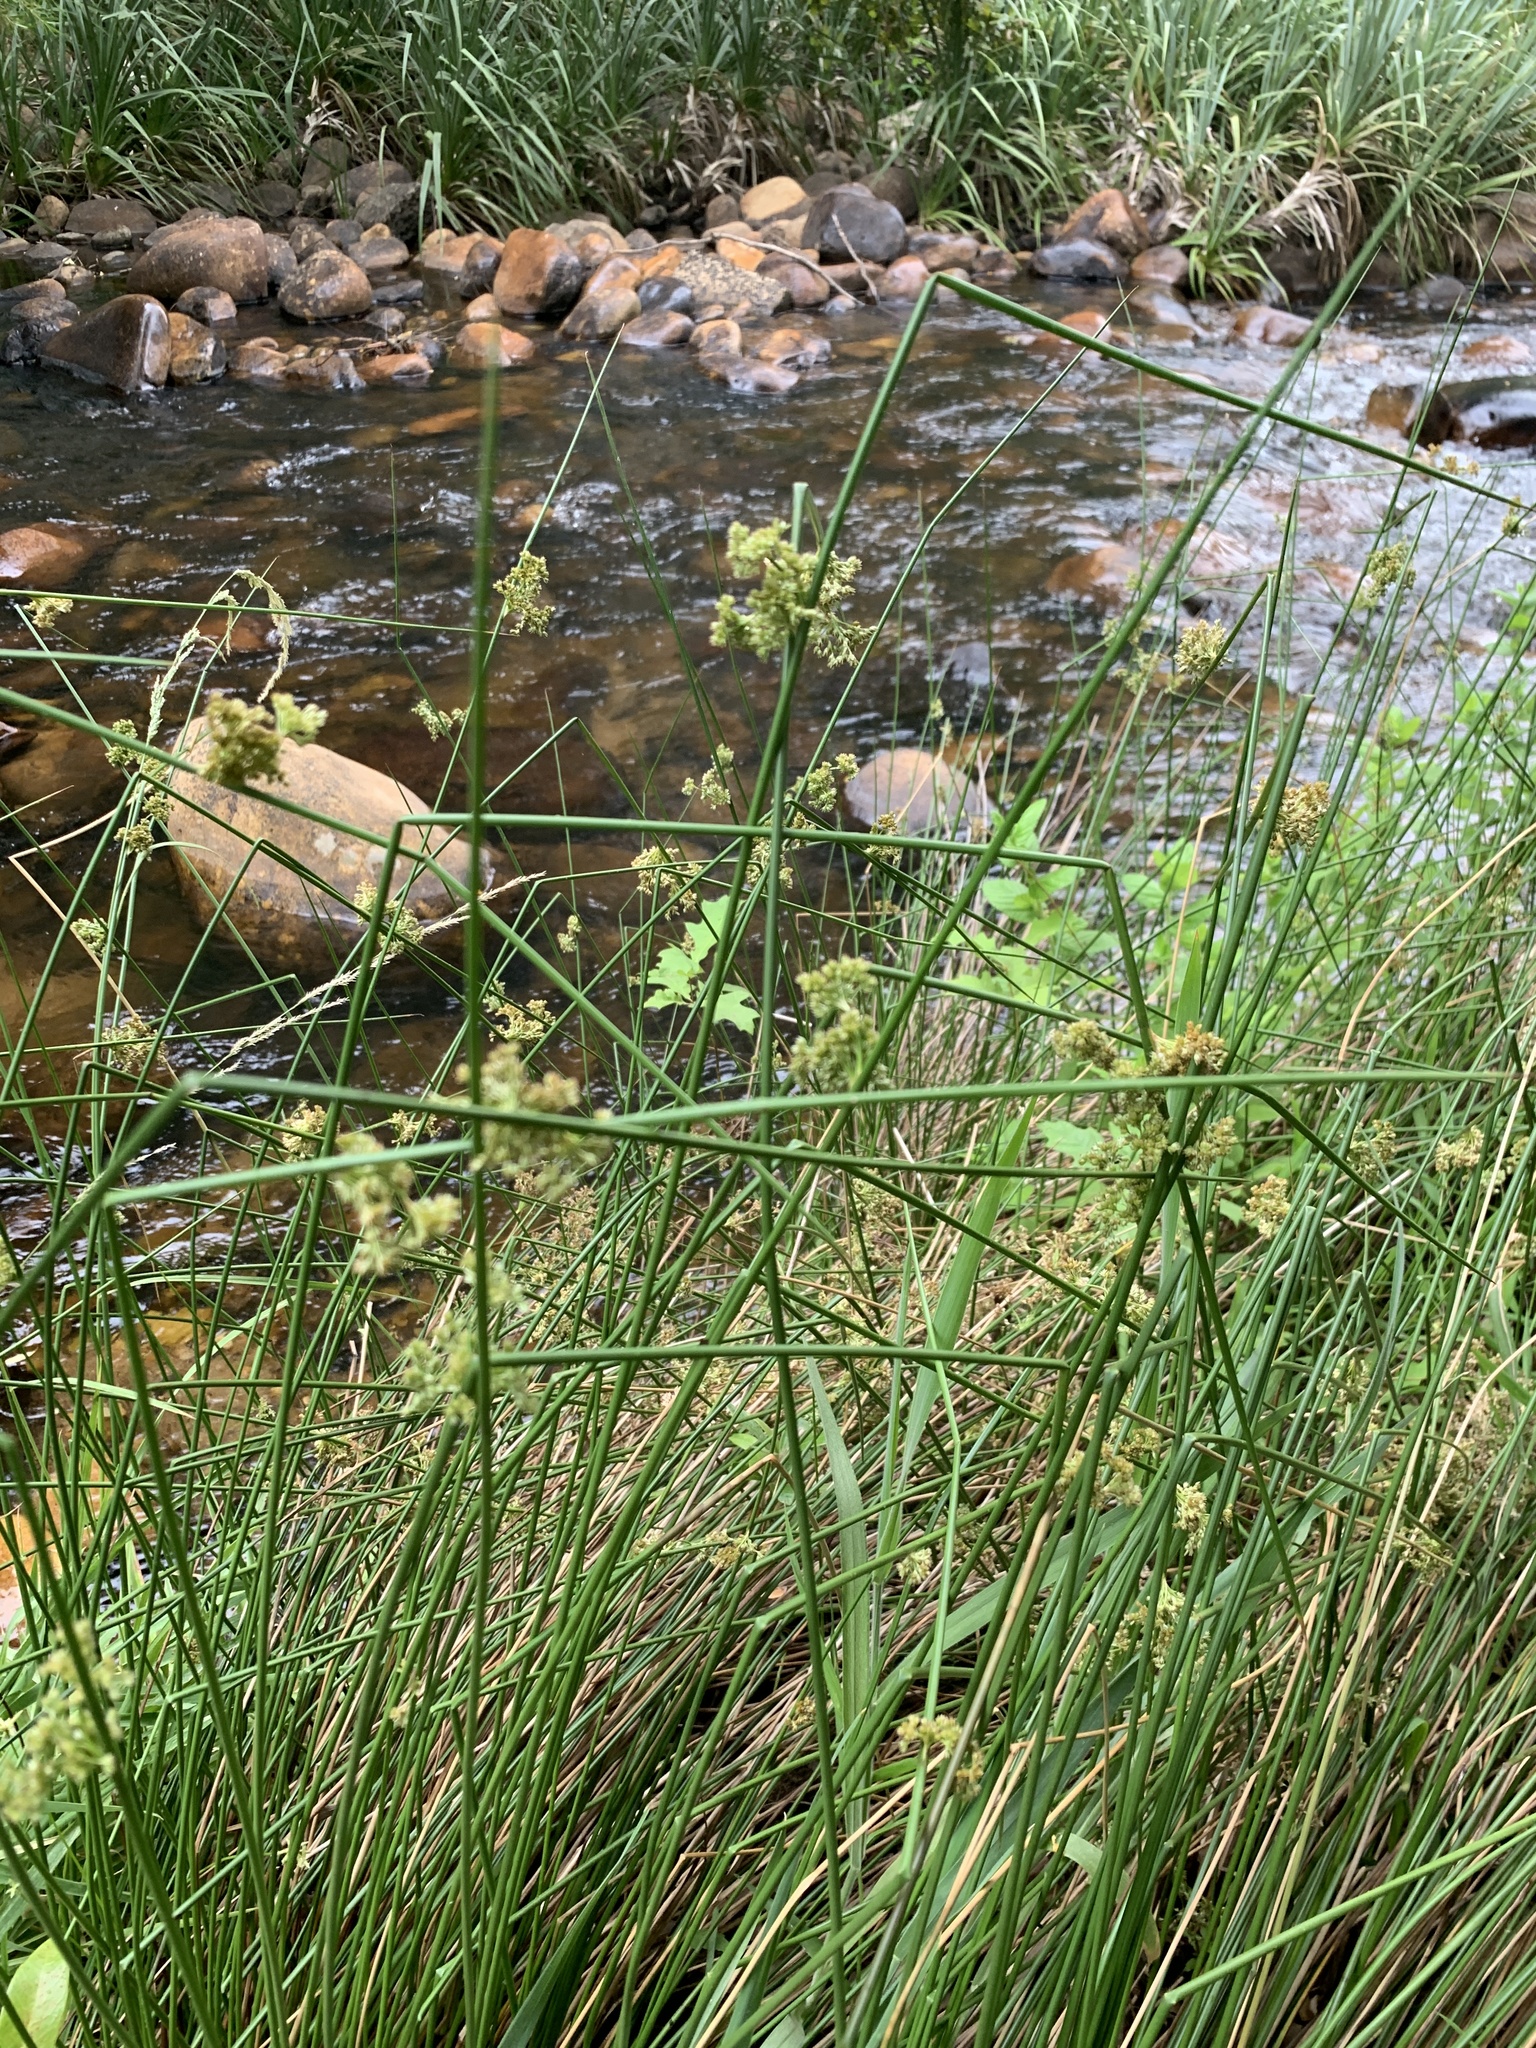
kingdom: Plantae
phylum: Tracheophyta
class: Liliopsida
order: Poales
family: Juncaceae
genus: Juncus
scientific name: Juncus effusus
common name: Soft rush
